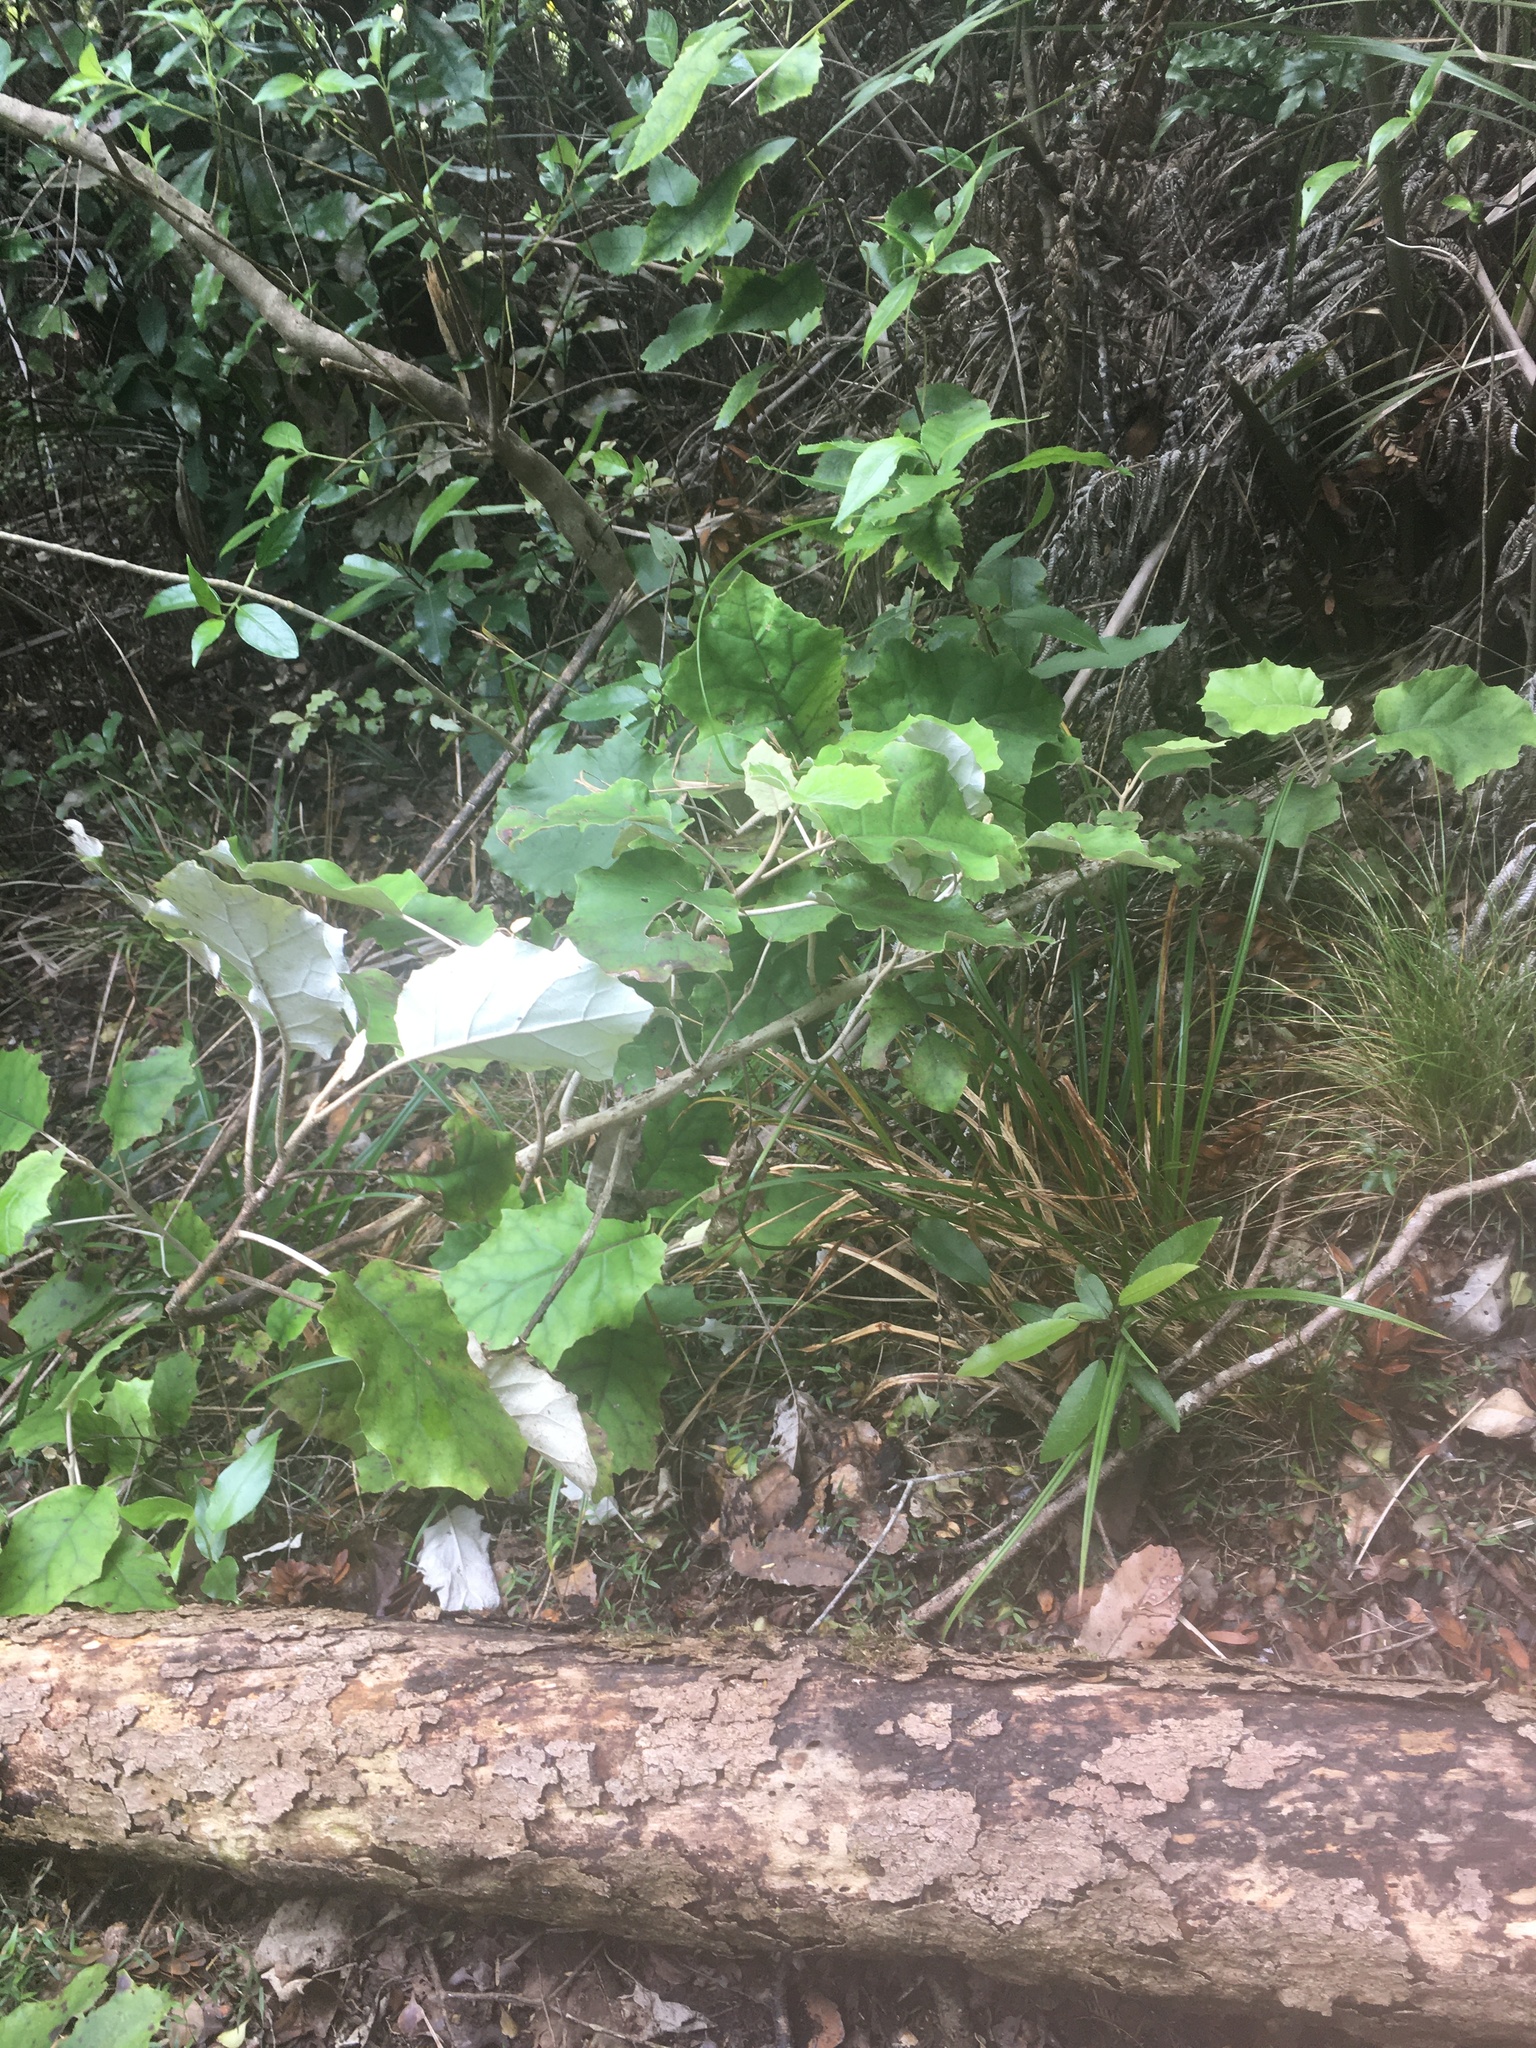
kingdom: Plantae
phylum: Tracheophyta
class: Magnoliopsida
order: Asterales
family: Asteraceae
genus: Brachyglottis
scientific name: Brachyglottis repanda
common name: Hedge ragwort
